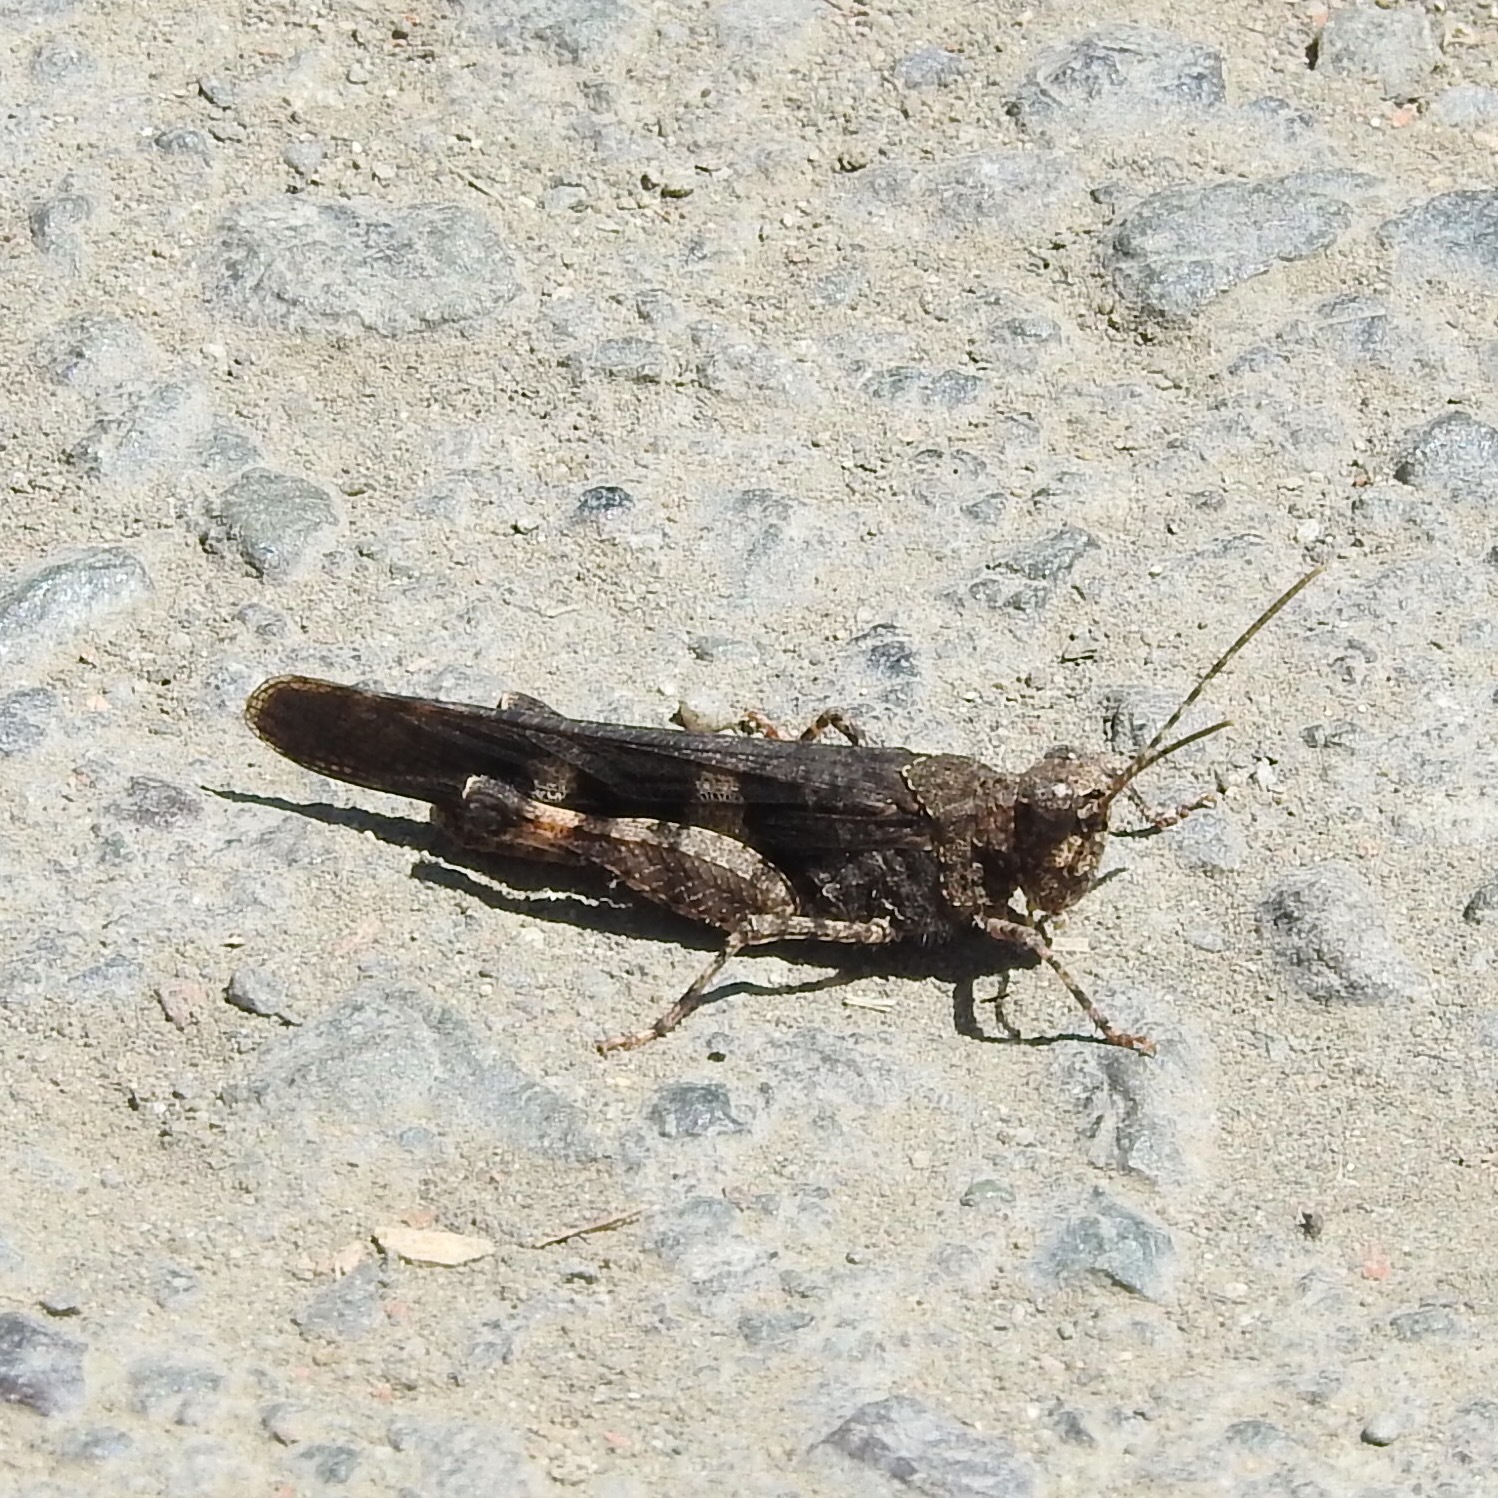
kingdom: Animalia
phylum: Arthropoda
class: Insecta
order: Orthoptera
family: Acrididae
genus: Trimerotropis
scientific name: Trimerotropis fontana
